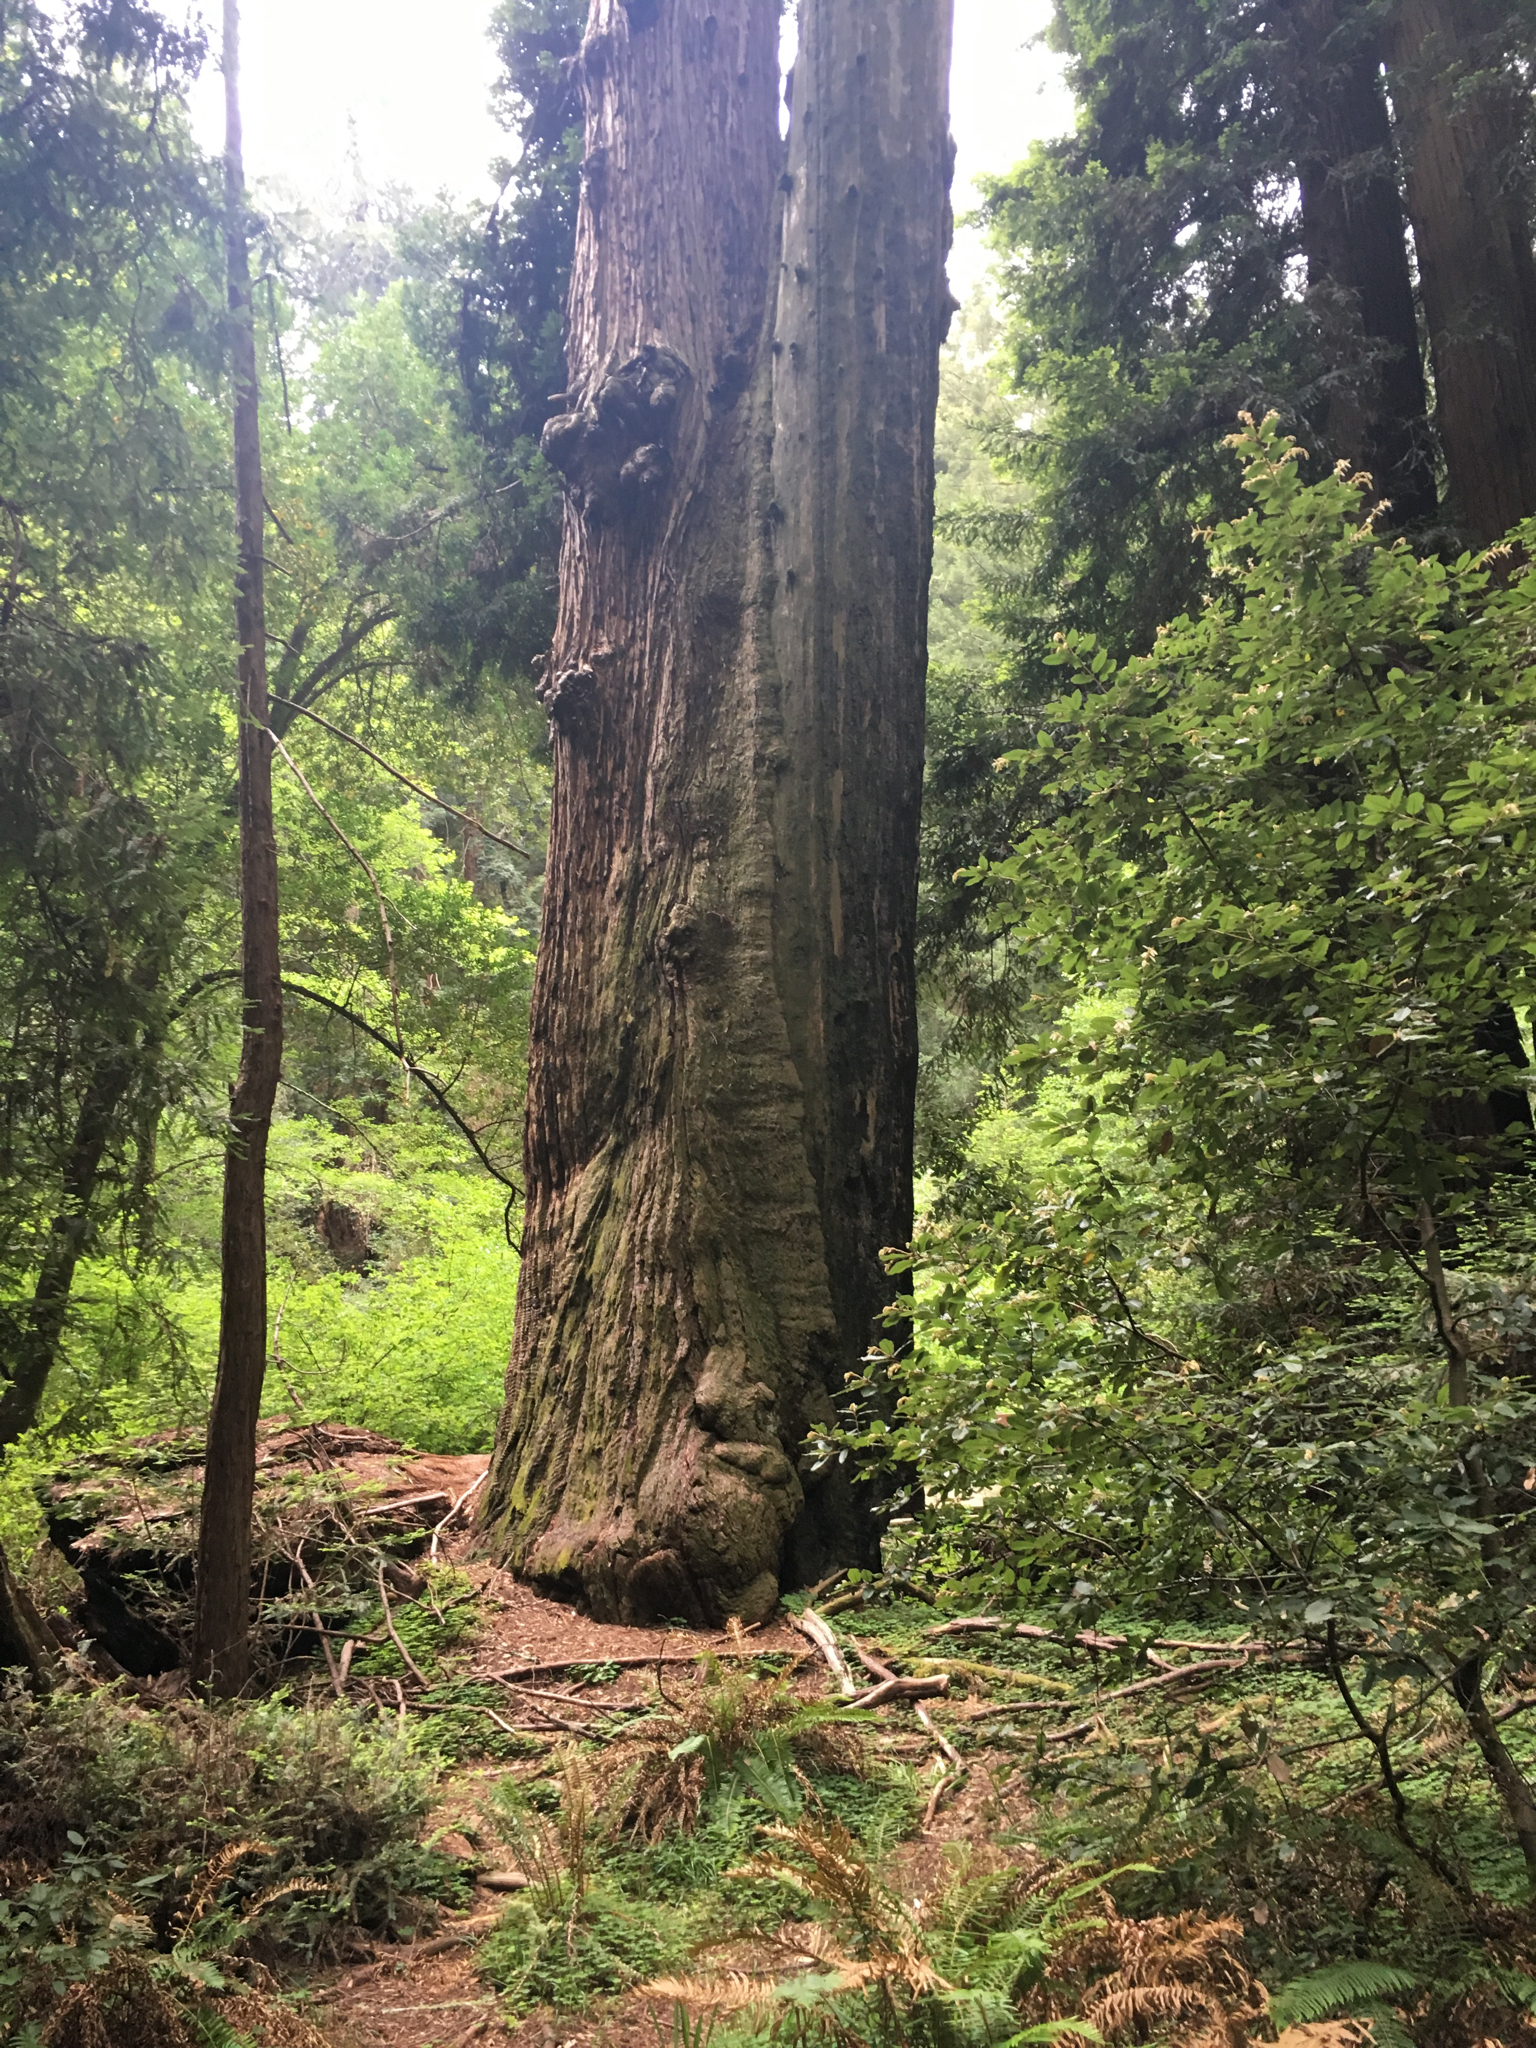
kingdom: Plantae
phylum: Tracheophyta
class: Pinopsida
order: Pinales
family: Cupressaceae
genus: Sequoia
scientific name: Sequoia sempervirens
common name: Coast redwood
